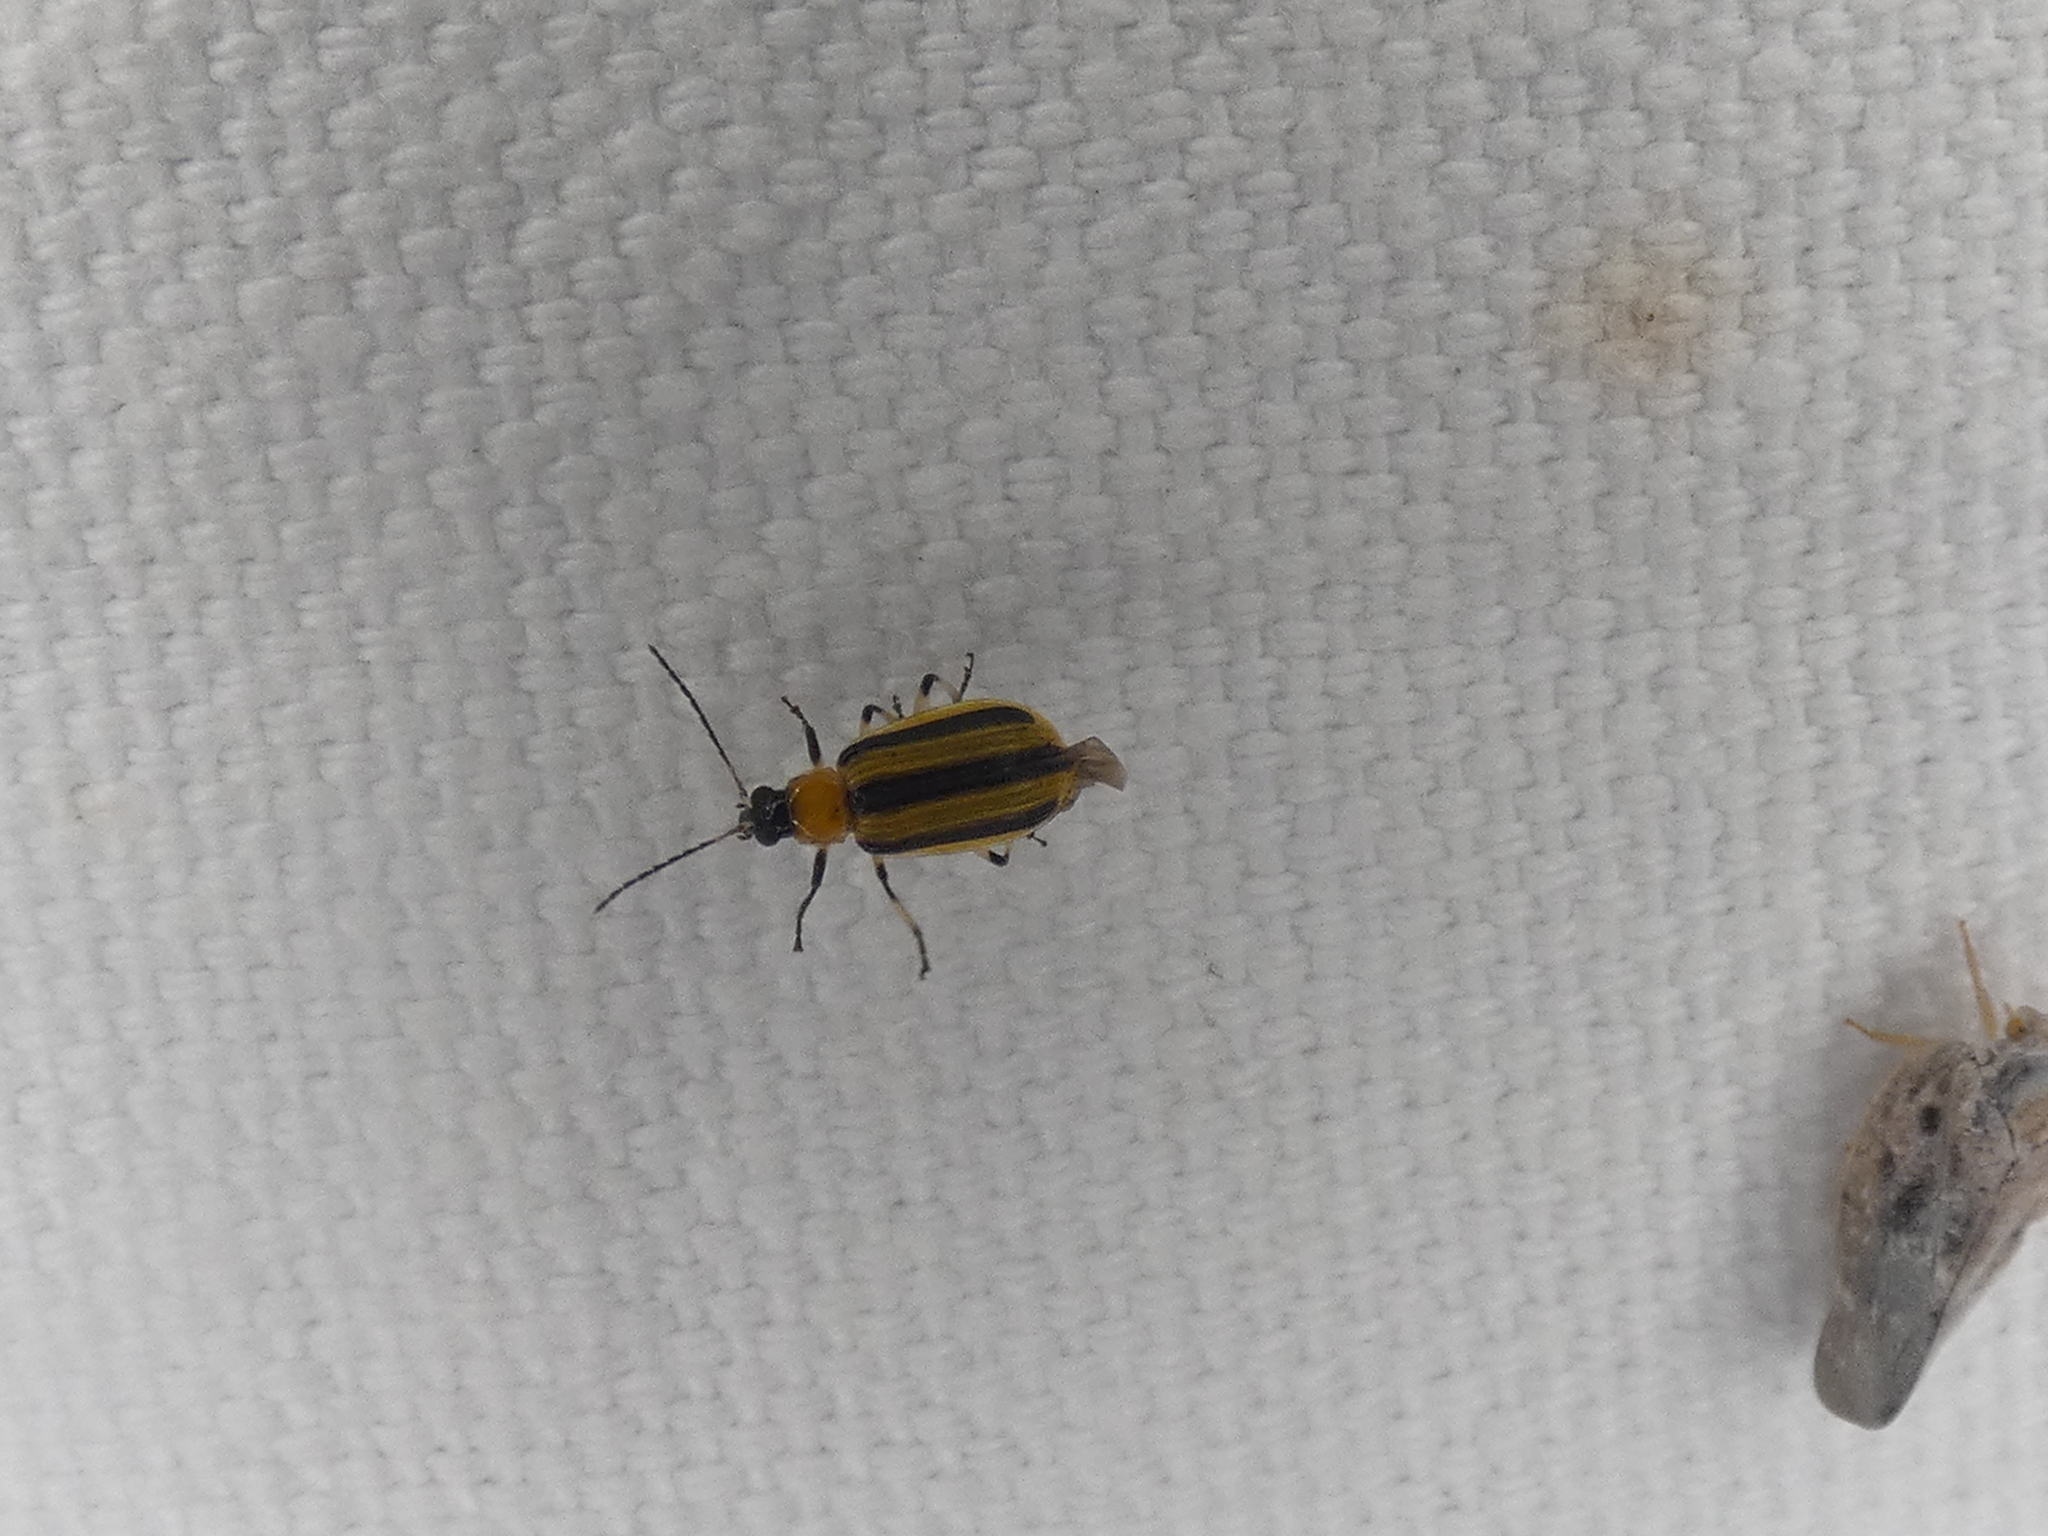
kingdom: Animalia
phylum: Arthropoda
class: Insecta
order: Coleoptera
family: Chrysomelidae
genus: Acalymma
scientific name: Acalymma vittatum
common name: Striped cucumber beetle
